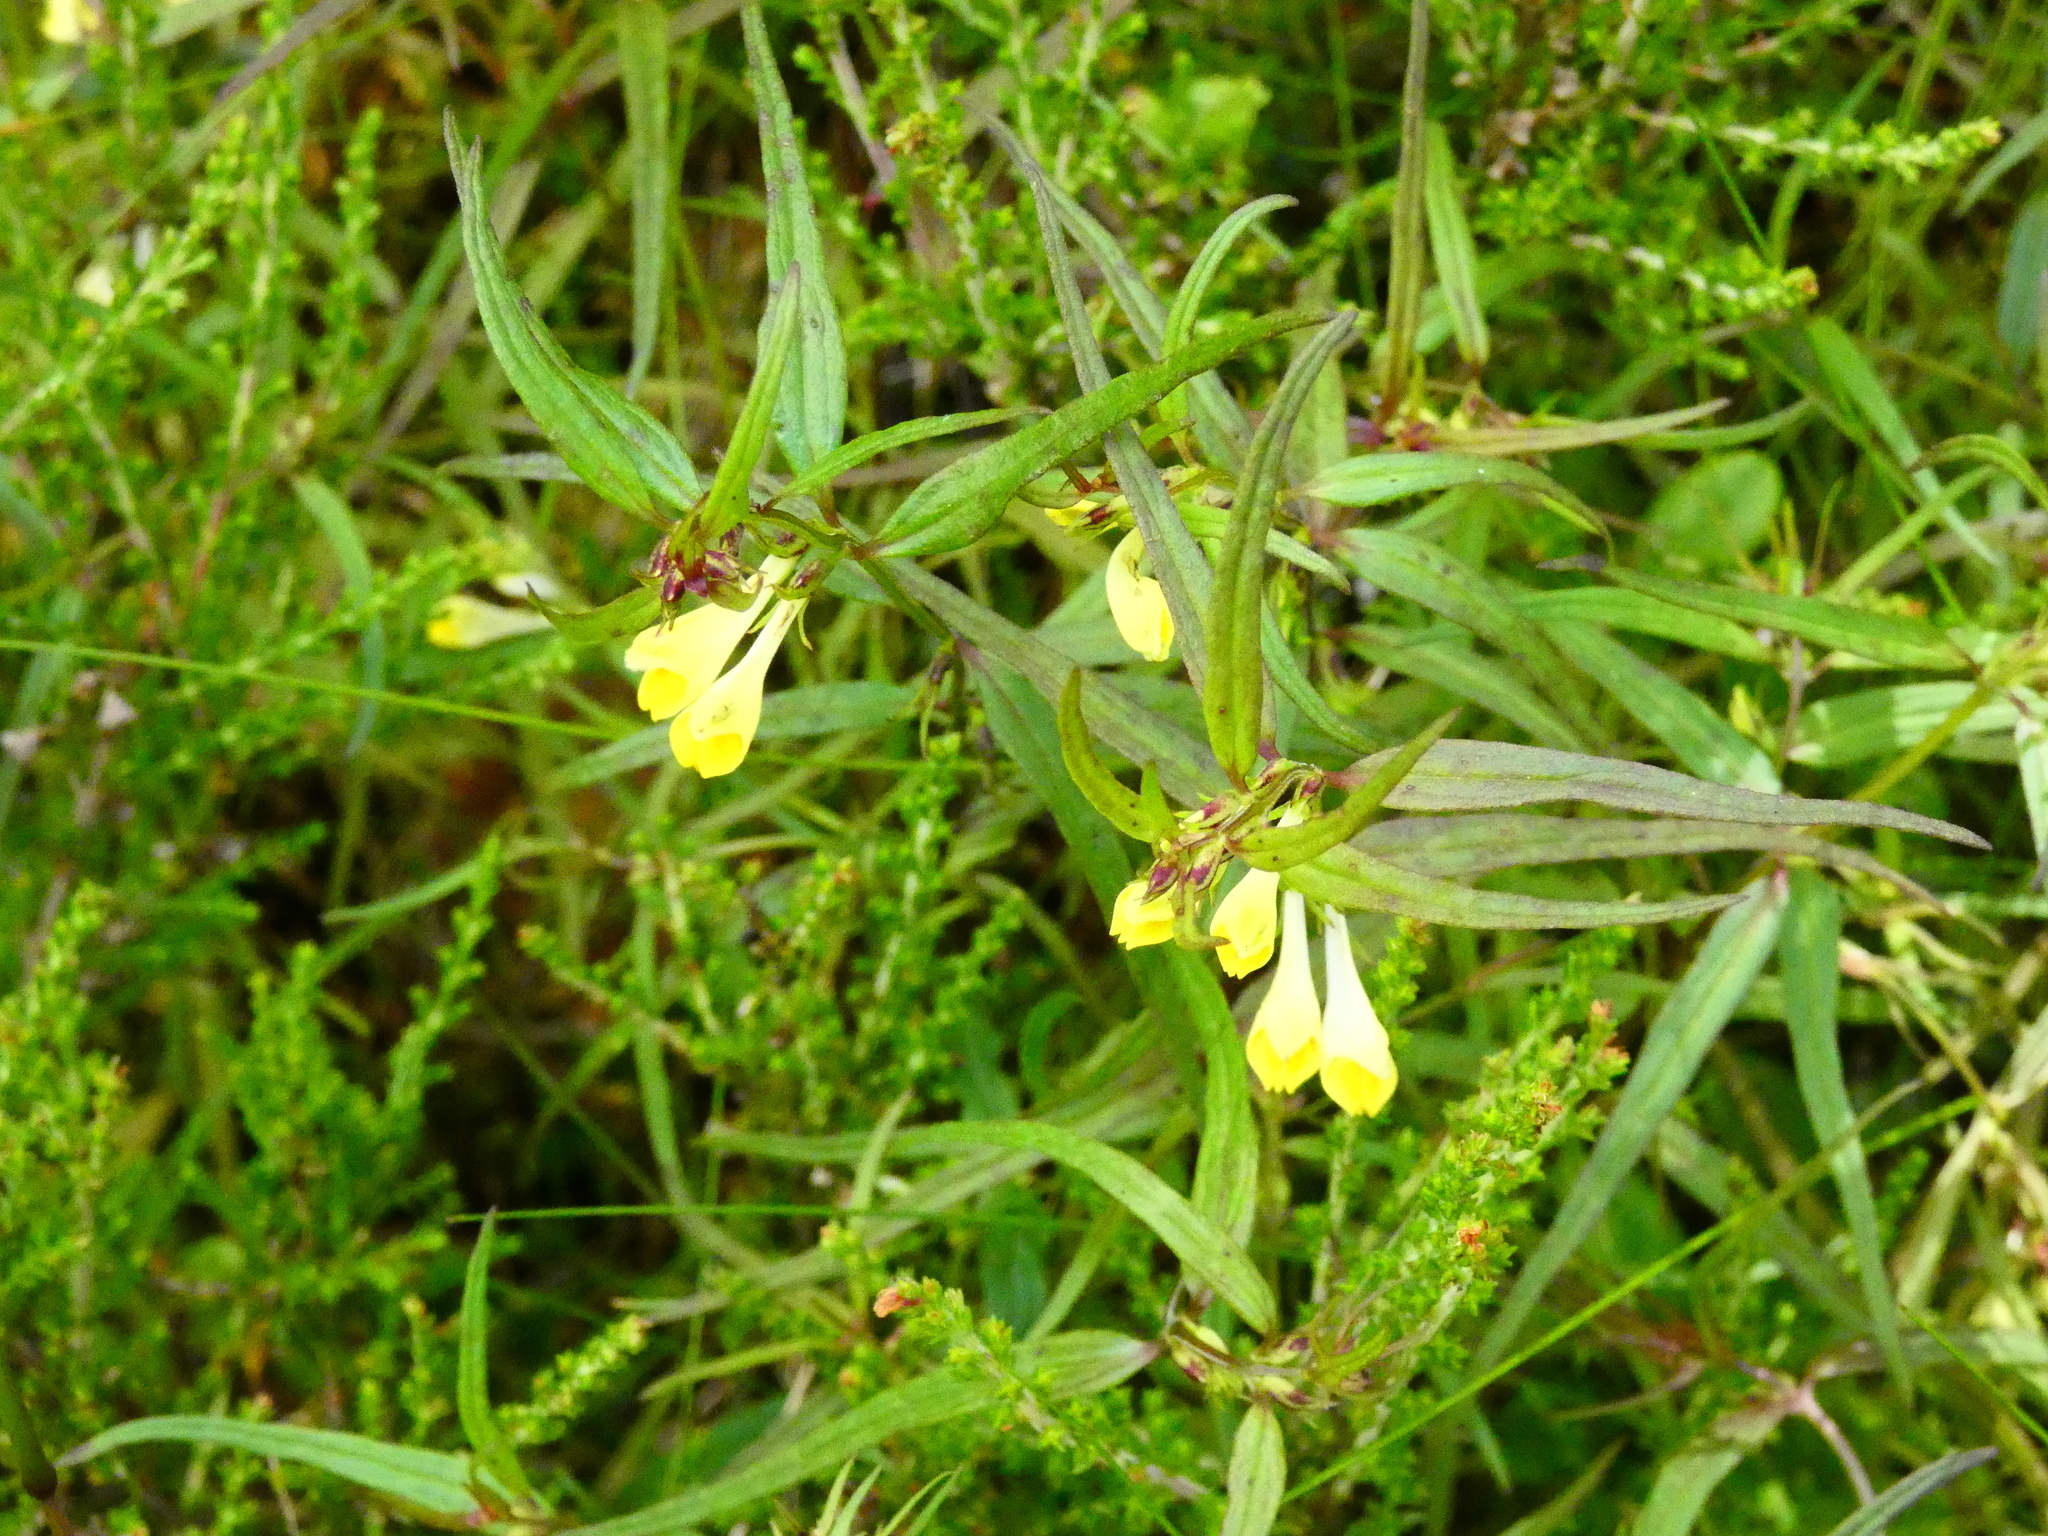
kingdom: Plantae
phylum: Tracheophyta
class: Magnoliopsida
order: Lamiales
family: Orobanchaceae
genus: Melampyrum
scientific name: Melampyrum pratense
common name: Common cow-wheat
